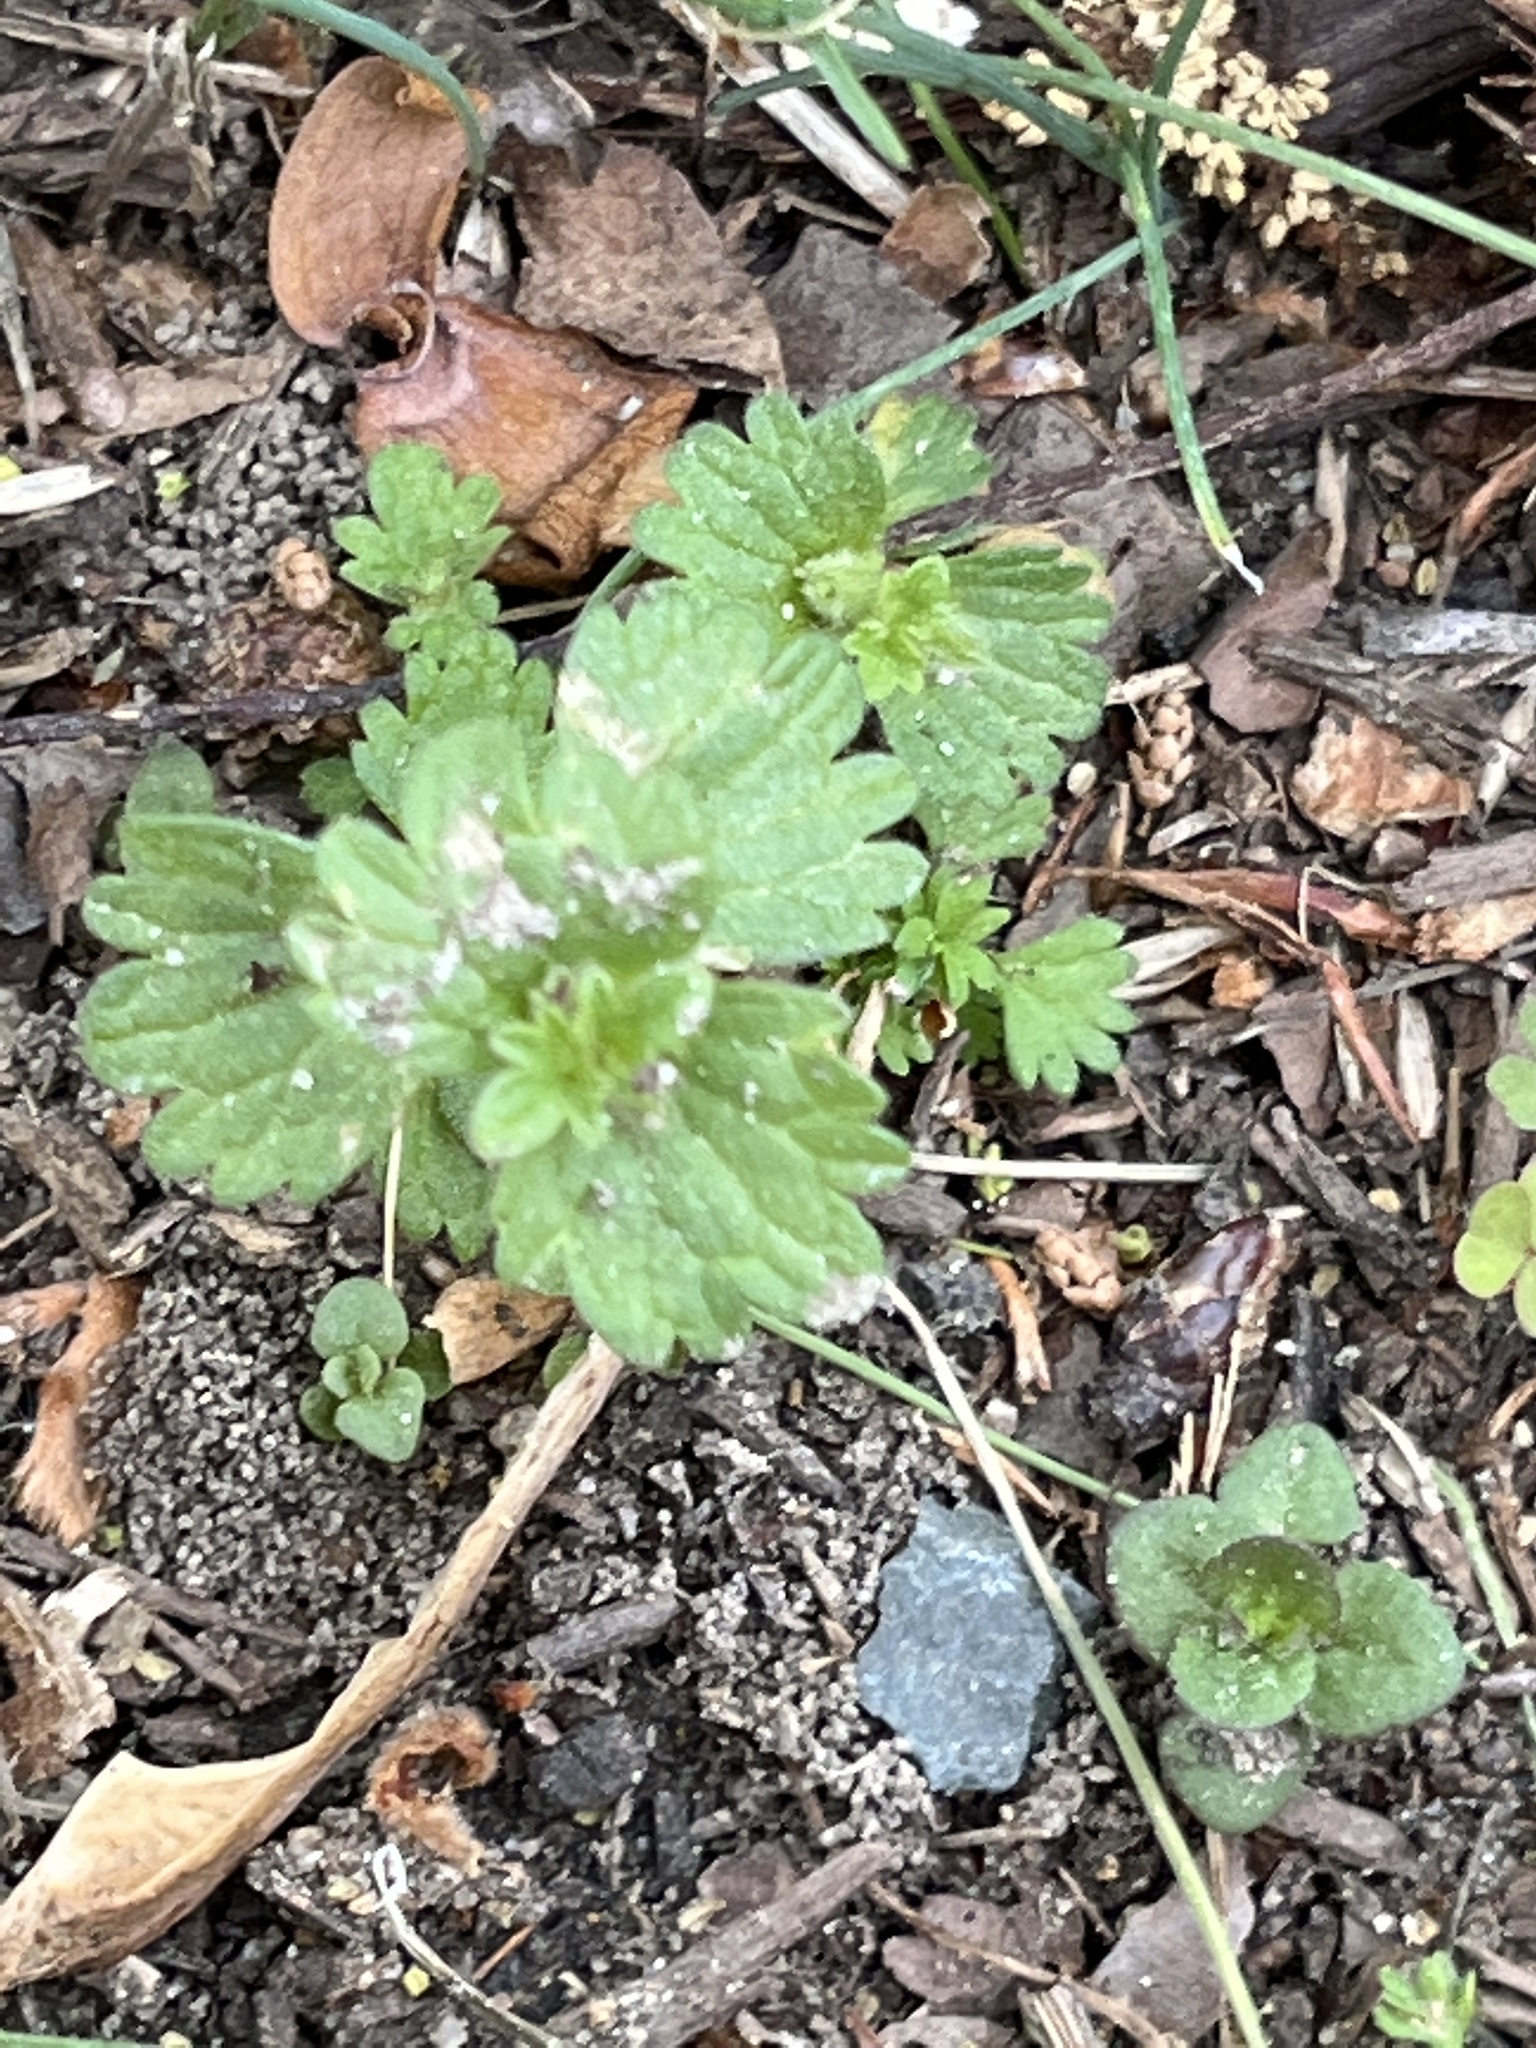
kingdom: Plantae
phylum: Tracheophyta
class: Magnoliopsida
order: Lamiales
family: Lamiaceae
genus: Lamium
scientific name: Lamium amplexicaule
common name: Henbit dead-nettle
